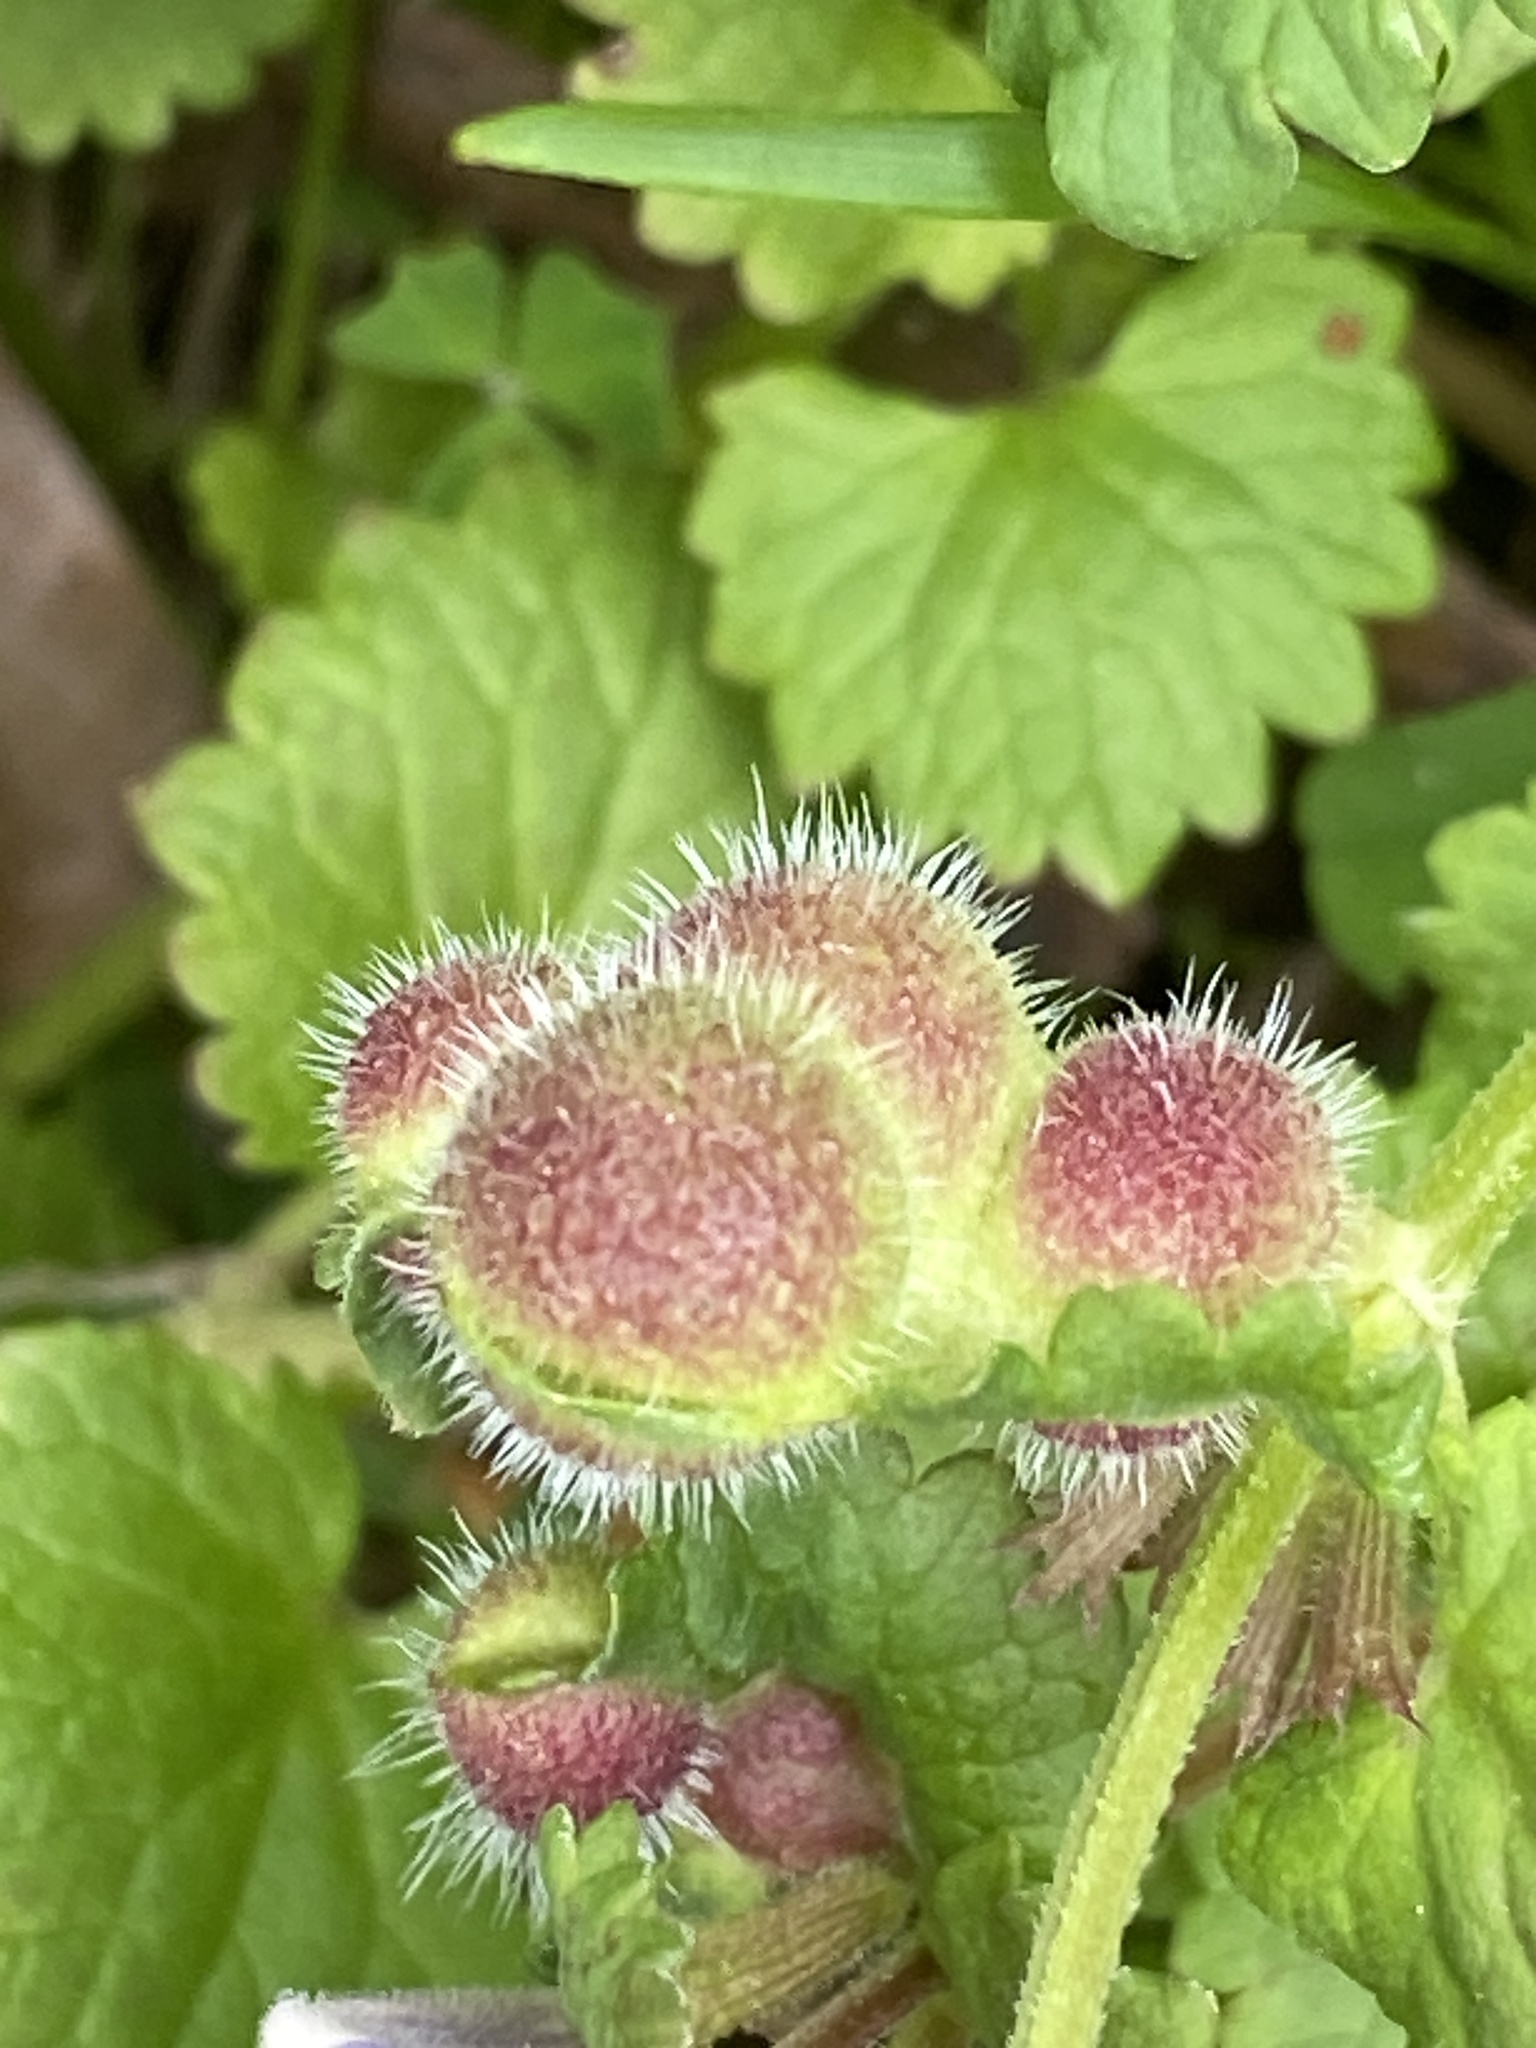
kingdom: Animalia
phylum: Arthropoda
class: Insecta
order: Hymenoptera
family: Cynipidae
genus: Liposthenes
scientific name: Liposthenes glechomae
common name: Gall wasp
